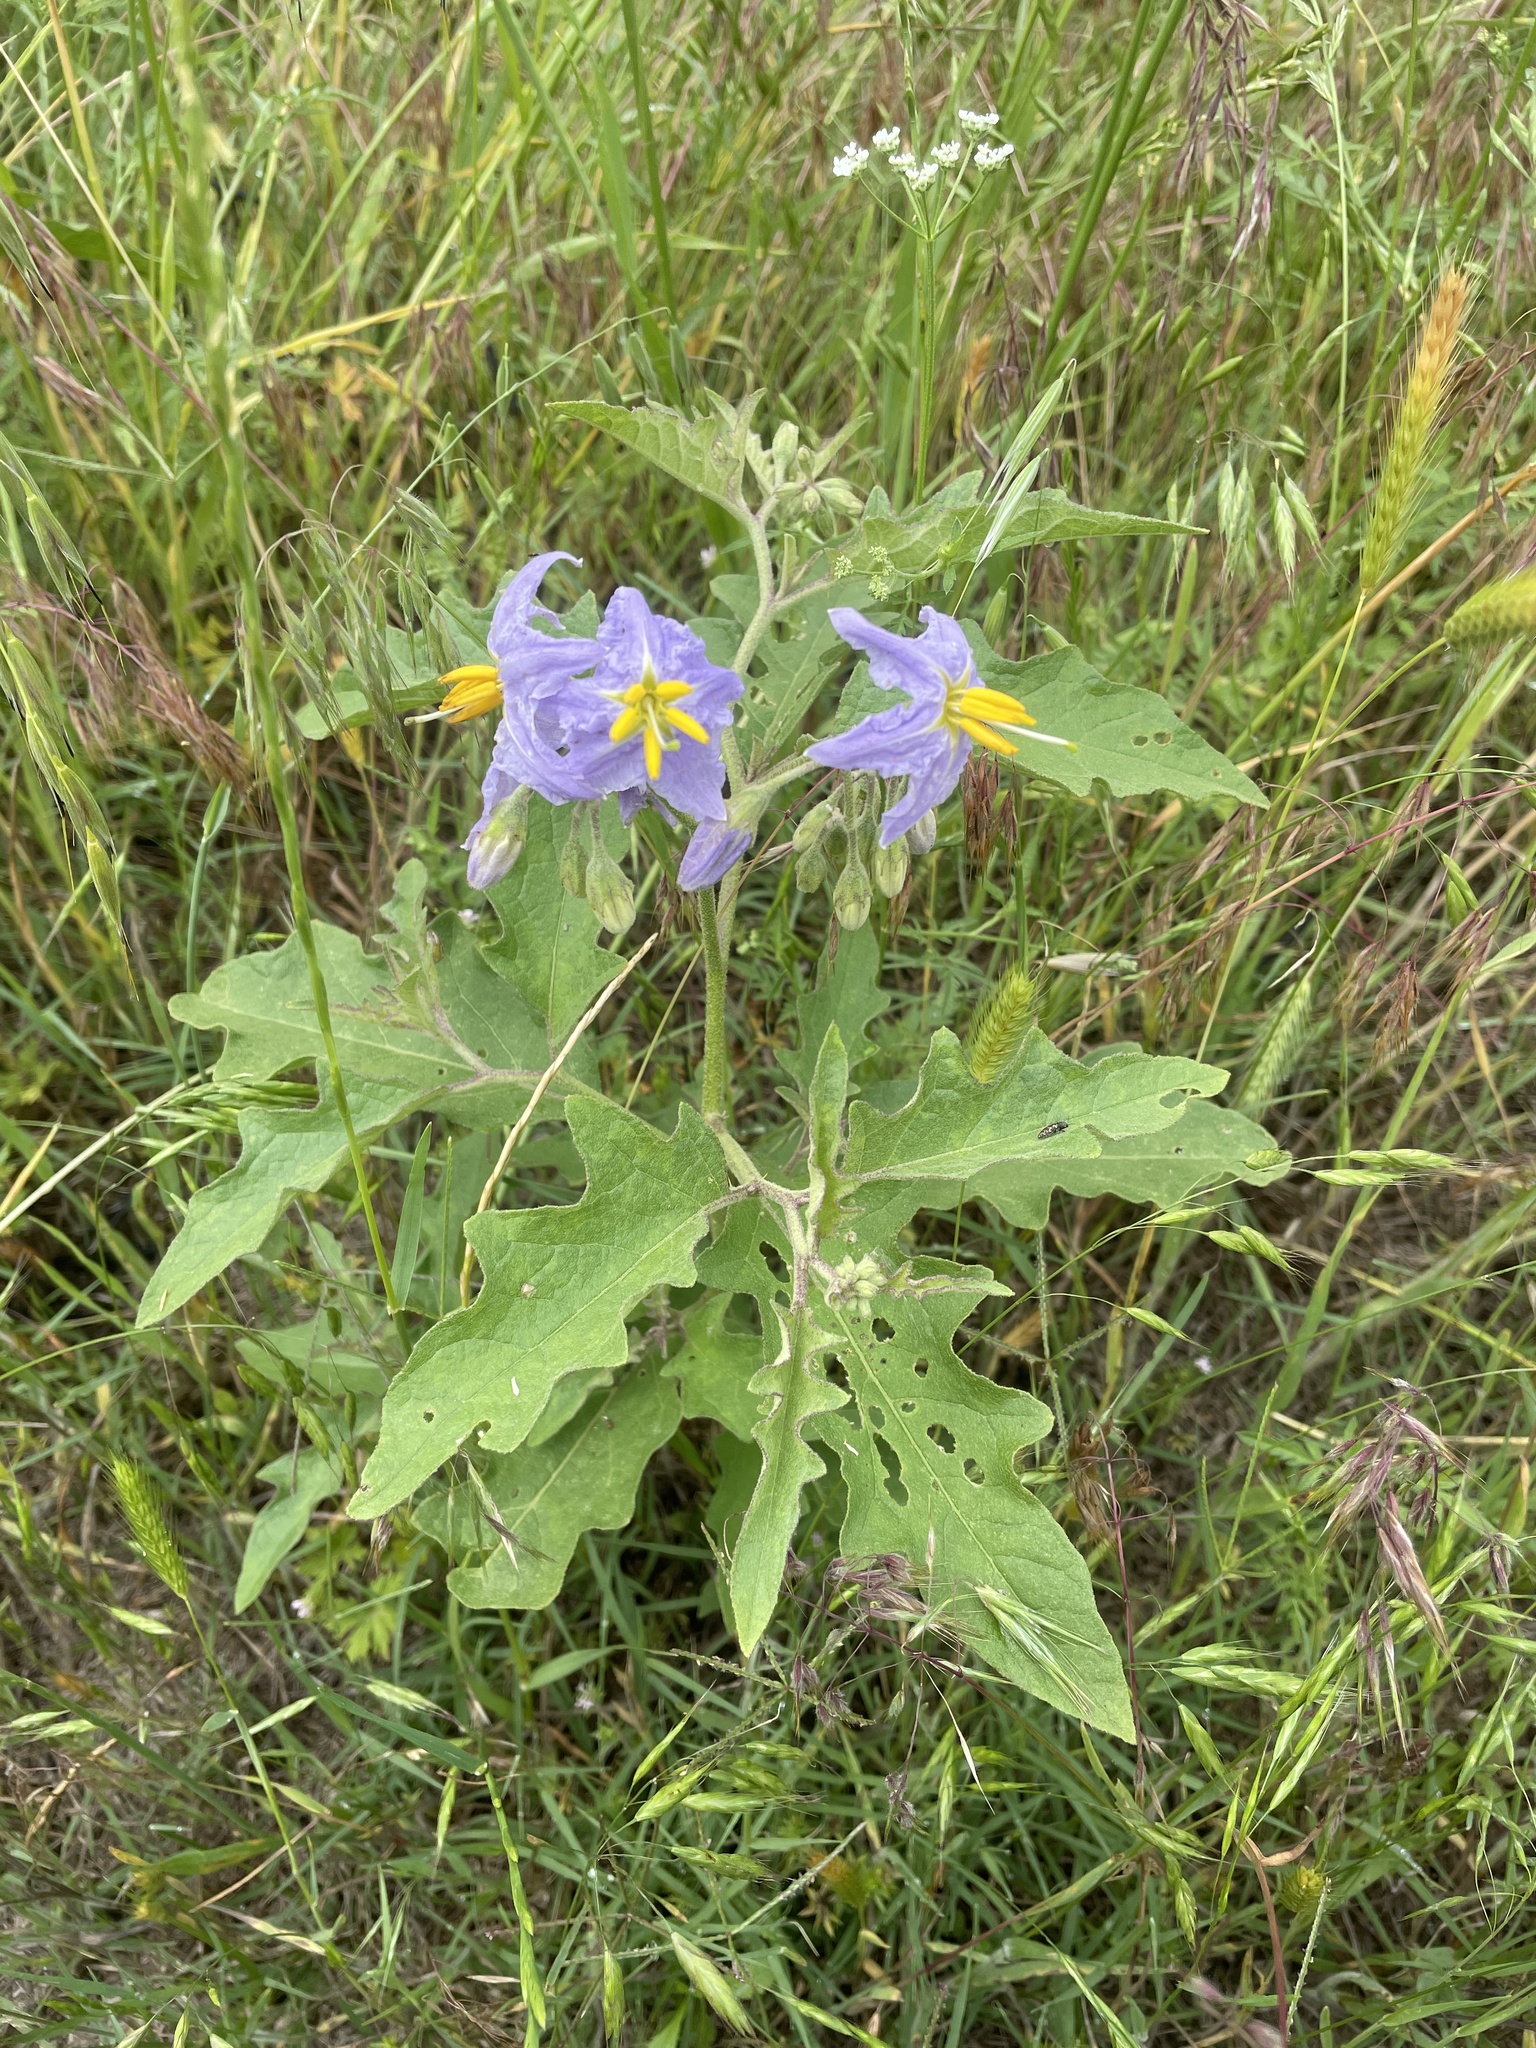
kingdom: Plantae
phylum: Tracheophyta
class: Magnoliopsida
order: Solanales
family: Solanaceae
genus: Solanum
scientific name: Solanum dimidiatum
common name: Carolina horse-nettle
